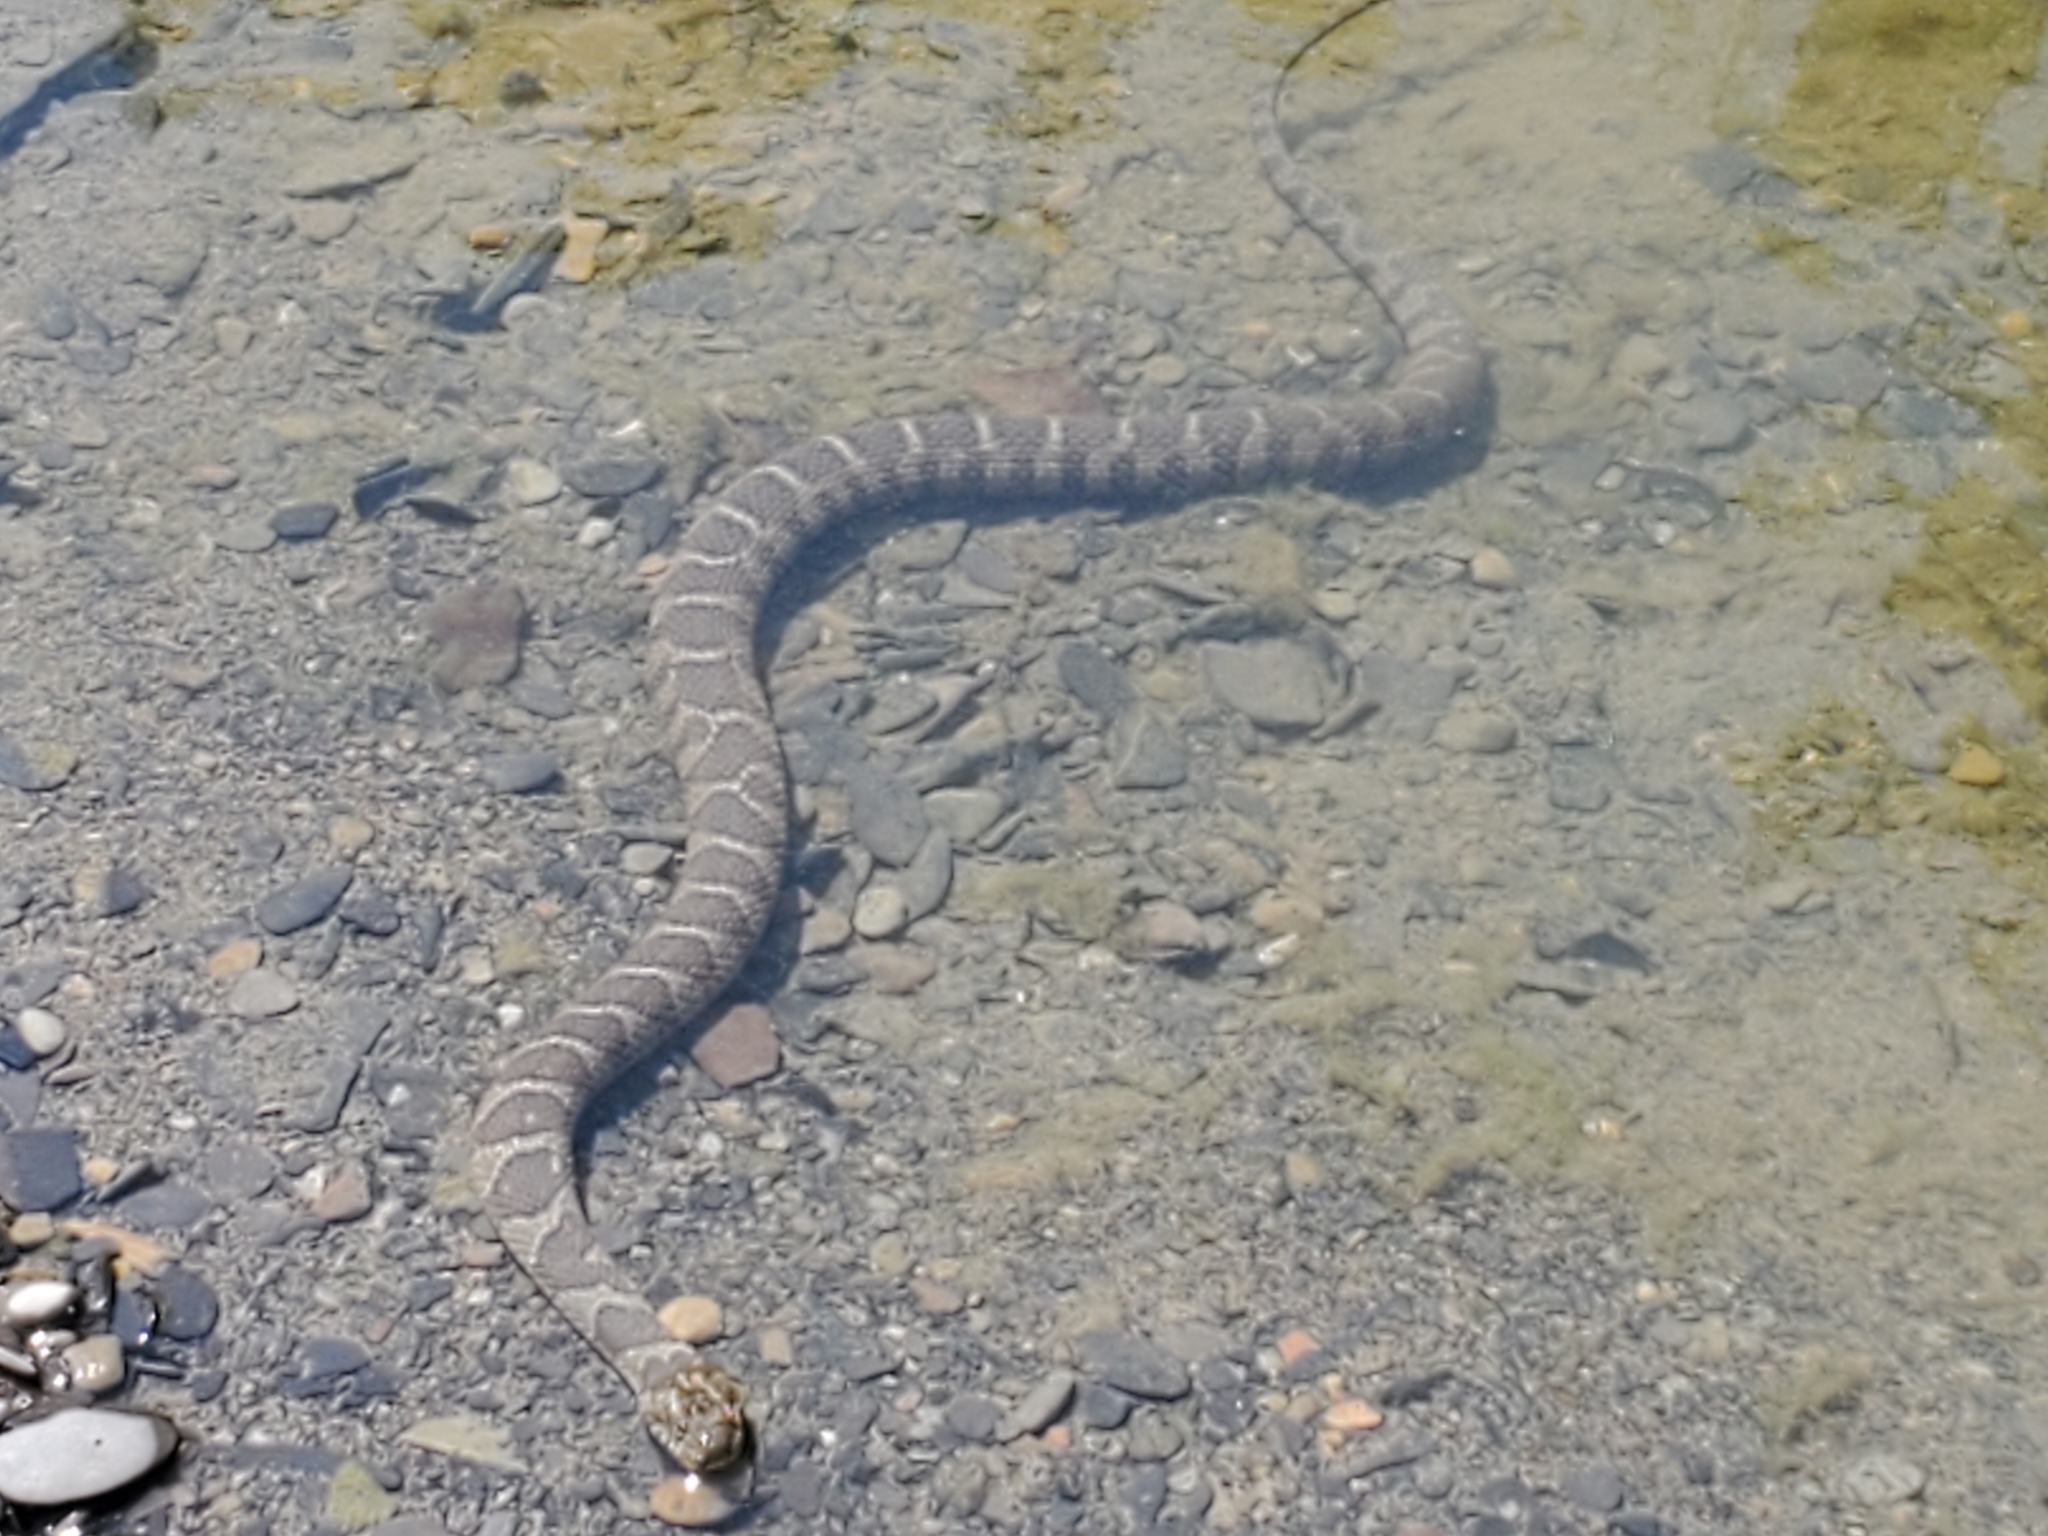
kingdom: Animalia
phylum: Chordata
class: Squamata
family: Colubridae
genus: Nerodia
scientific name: Nerodia sipedon
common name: Northern water snake
